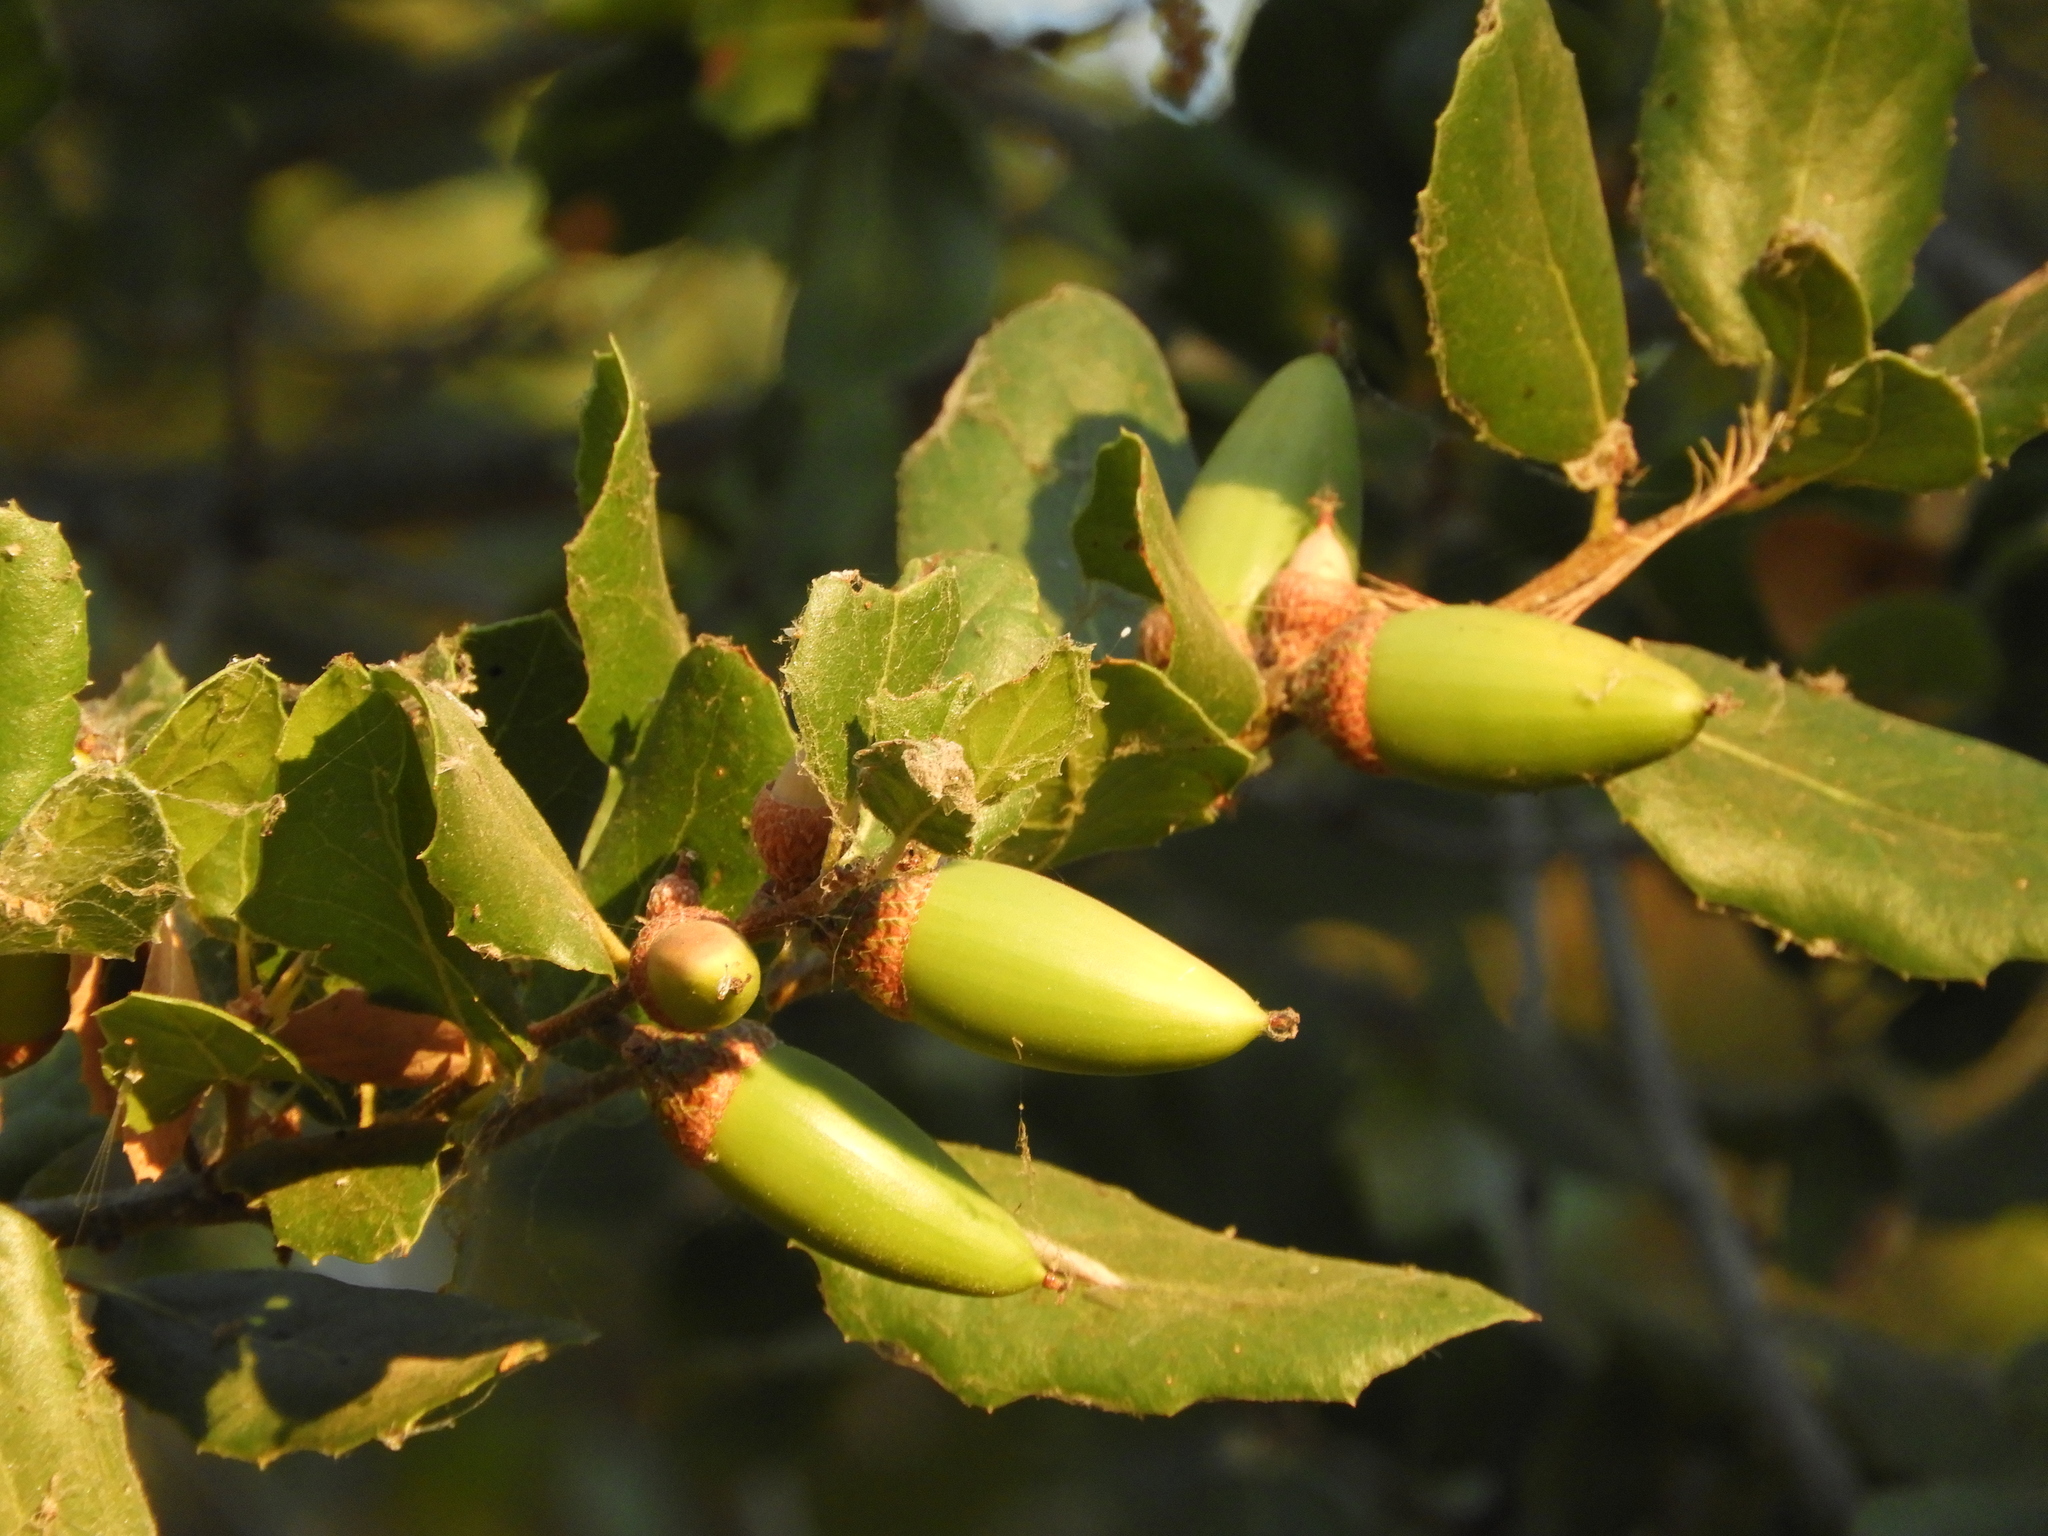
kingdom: Plantae
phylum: Tracheophyta
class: Magnoliopsida
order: Fagales
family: Fagaceae
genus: Quercus
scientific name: Quercus wislizeni
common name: Interior live oak
